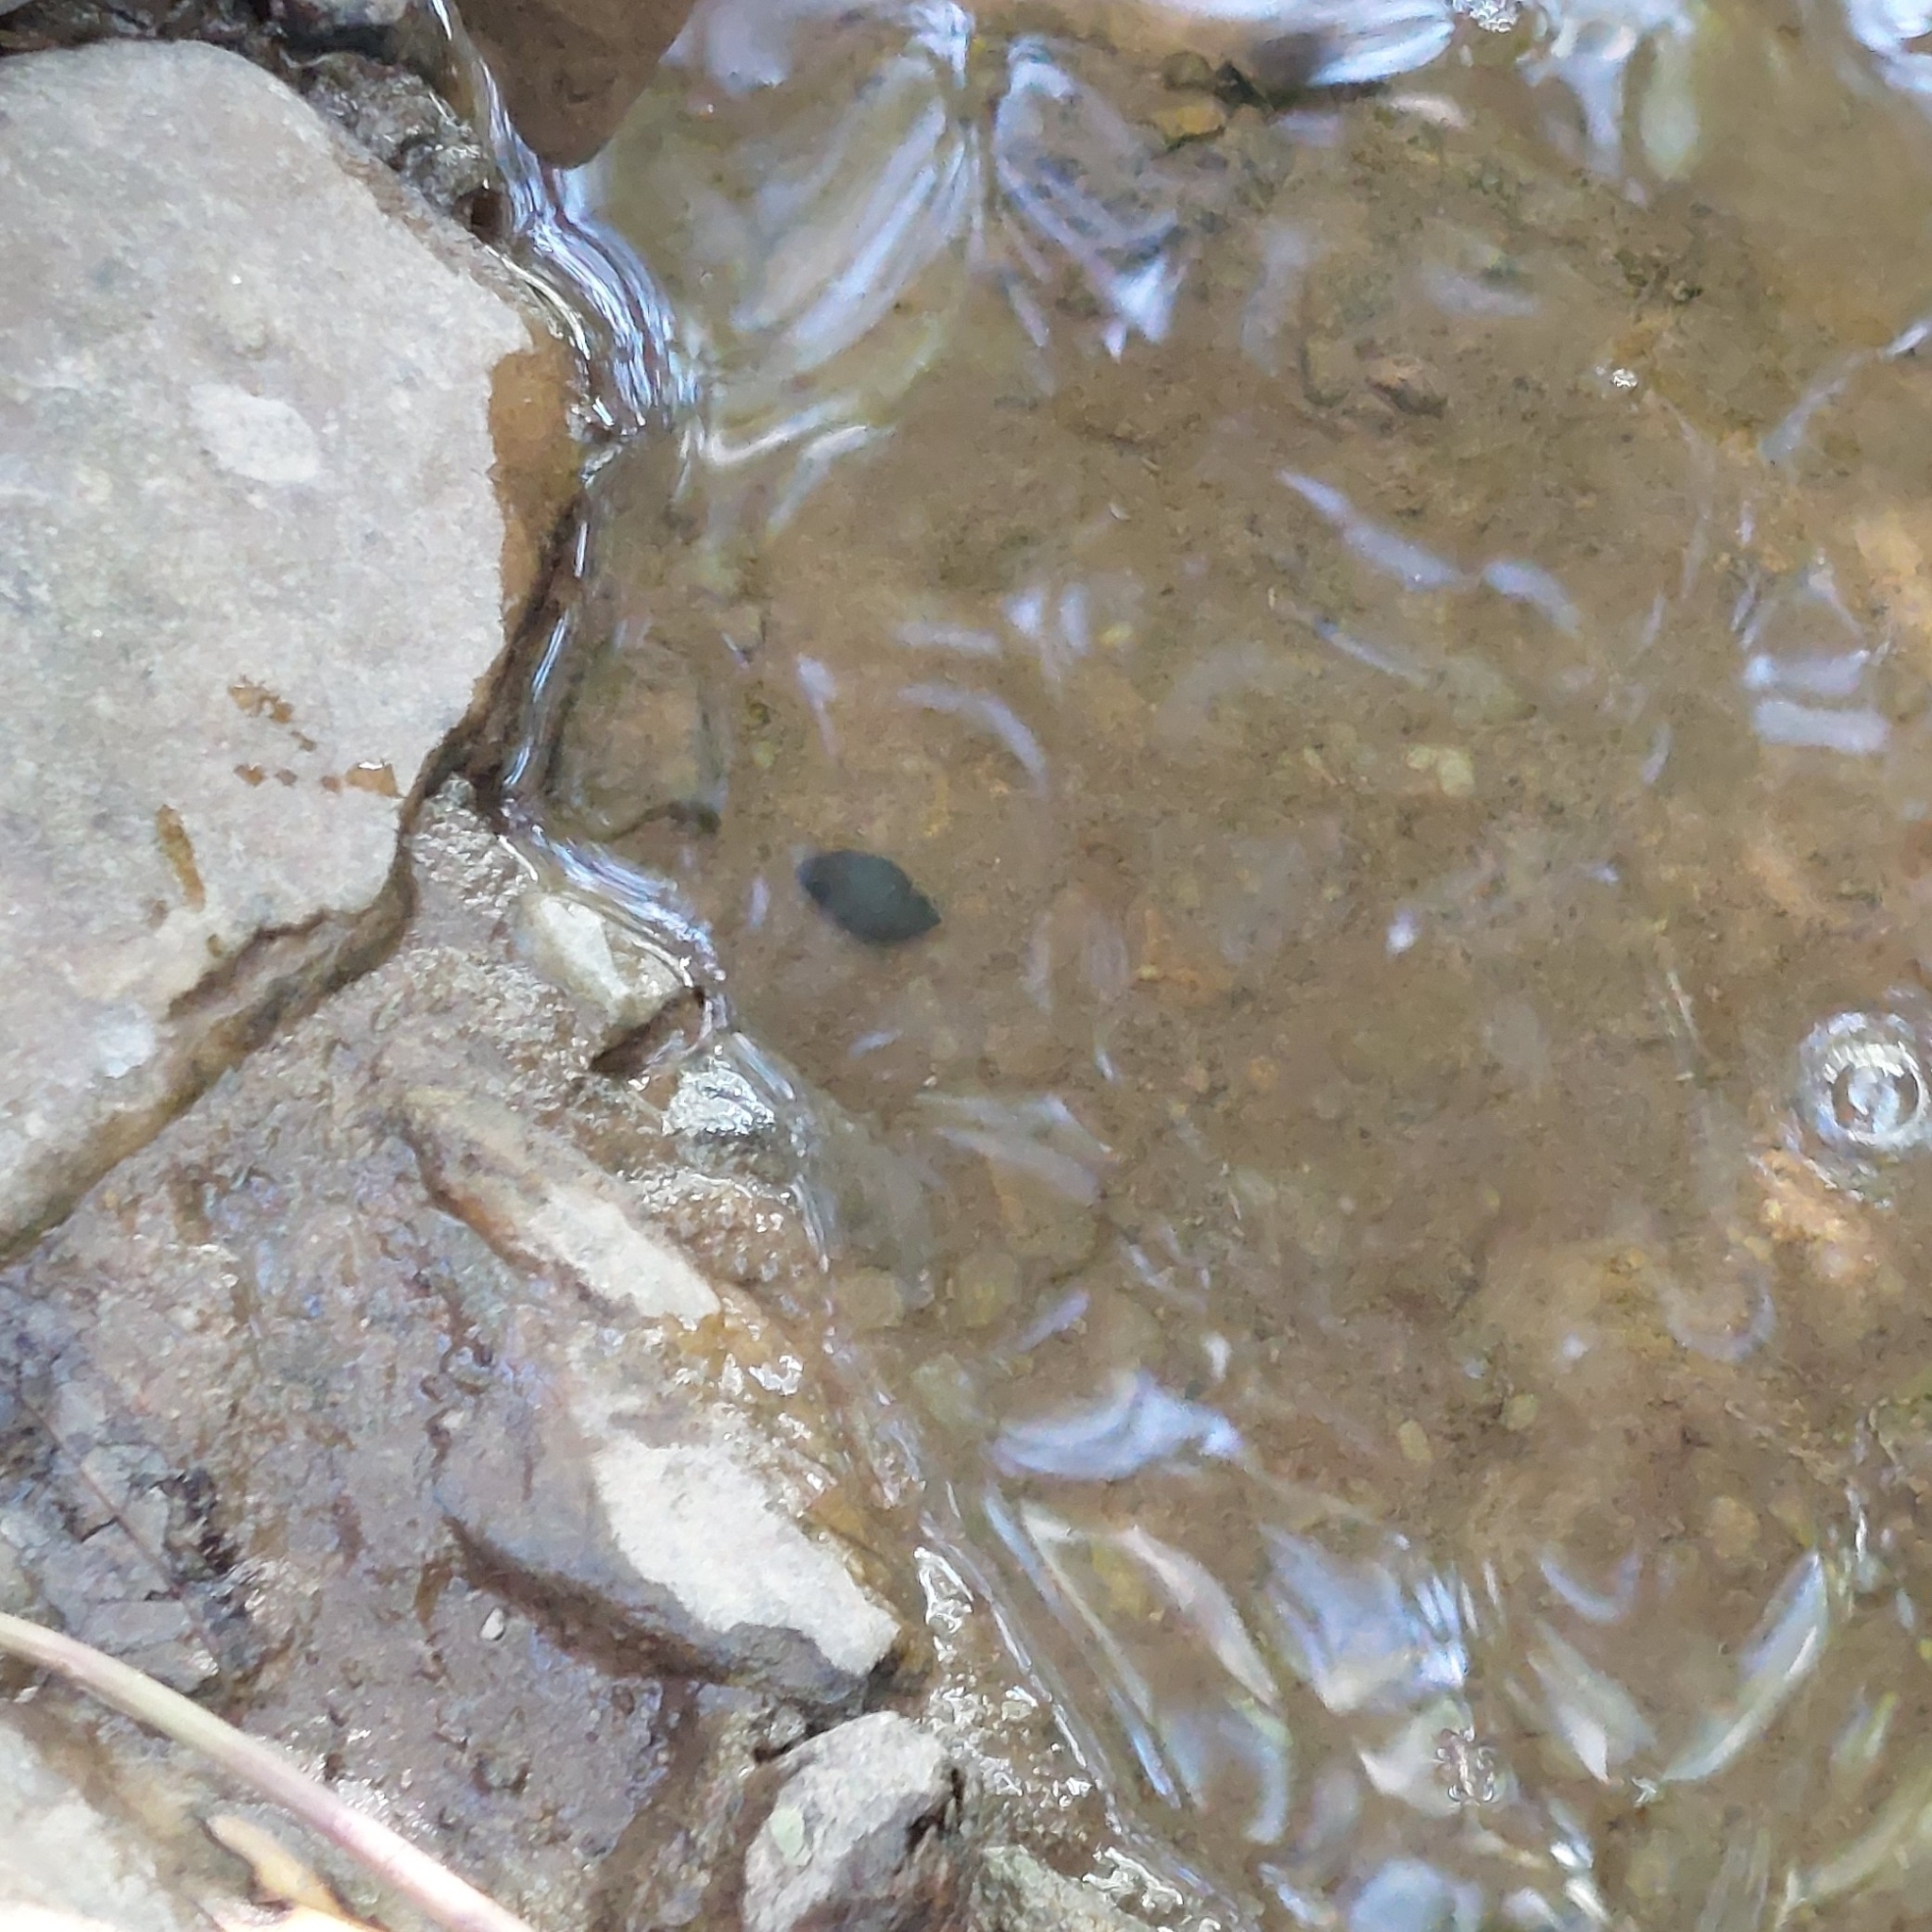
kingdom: Animalia
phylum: Mollusca
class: Gastropoda
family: Chilinidae
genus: Chilina
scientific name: Chilina parchappii
